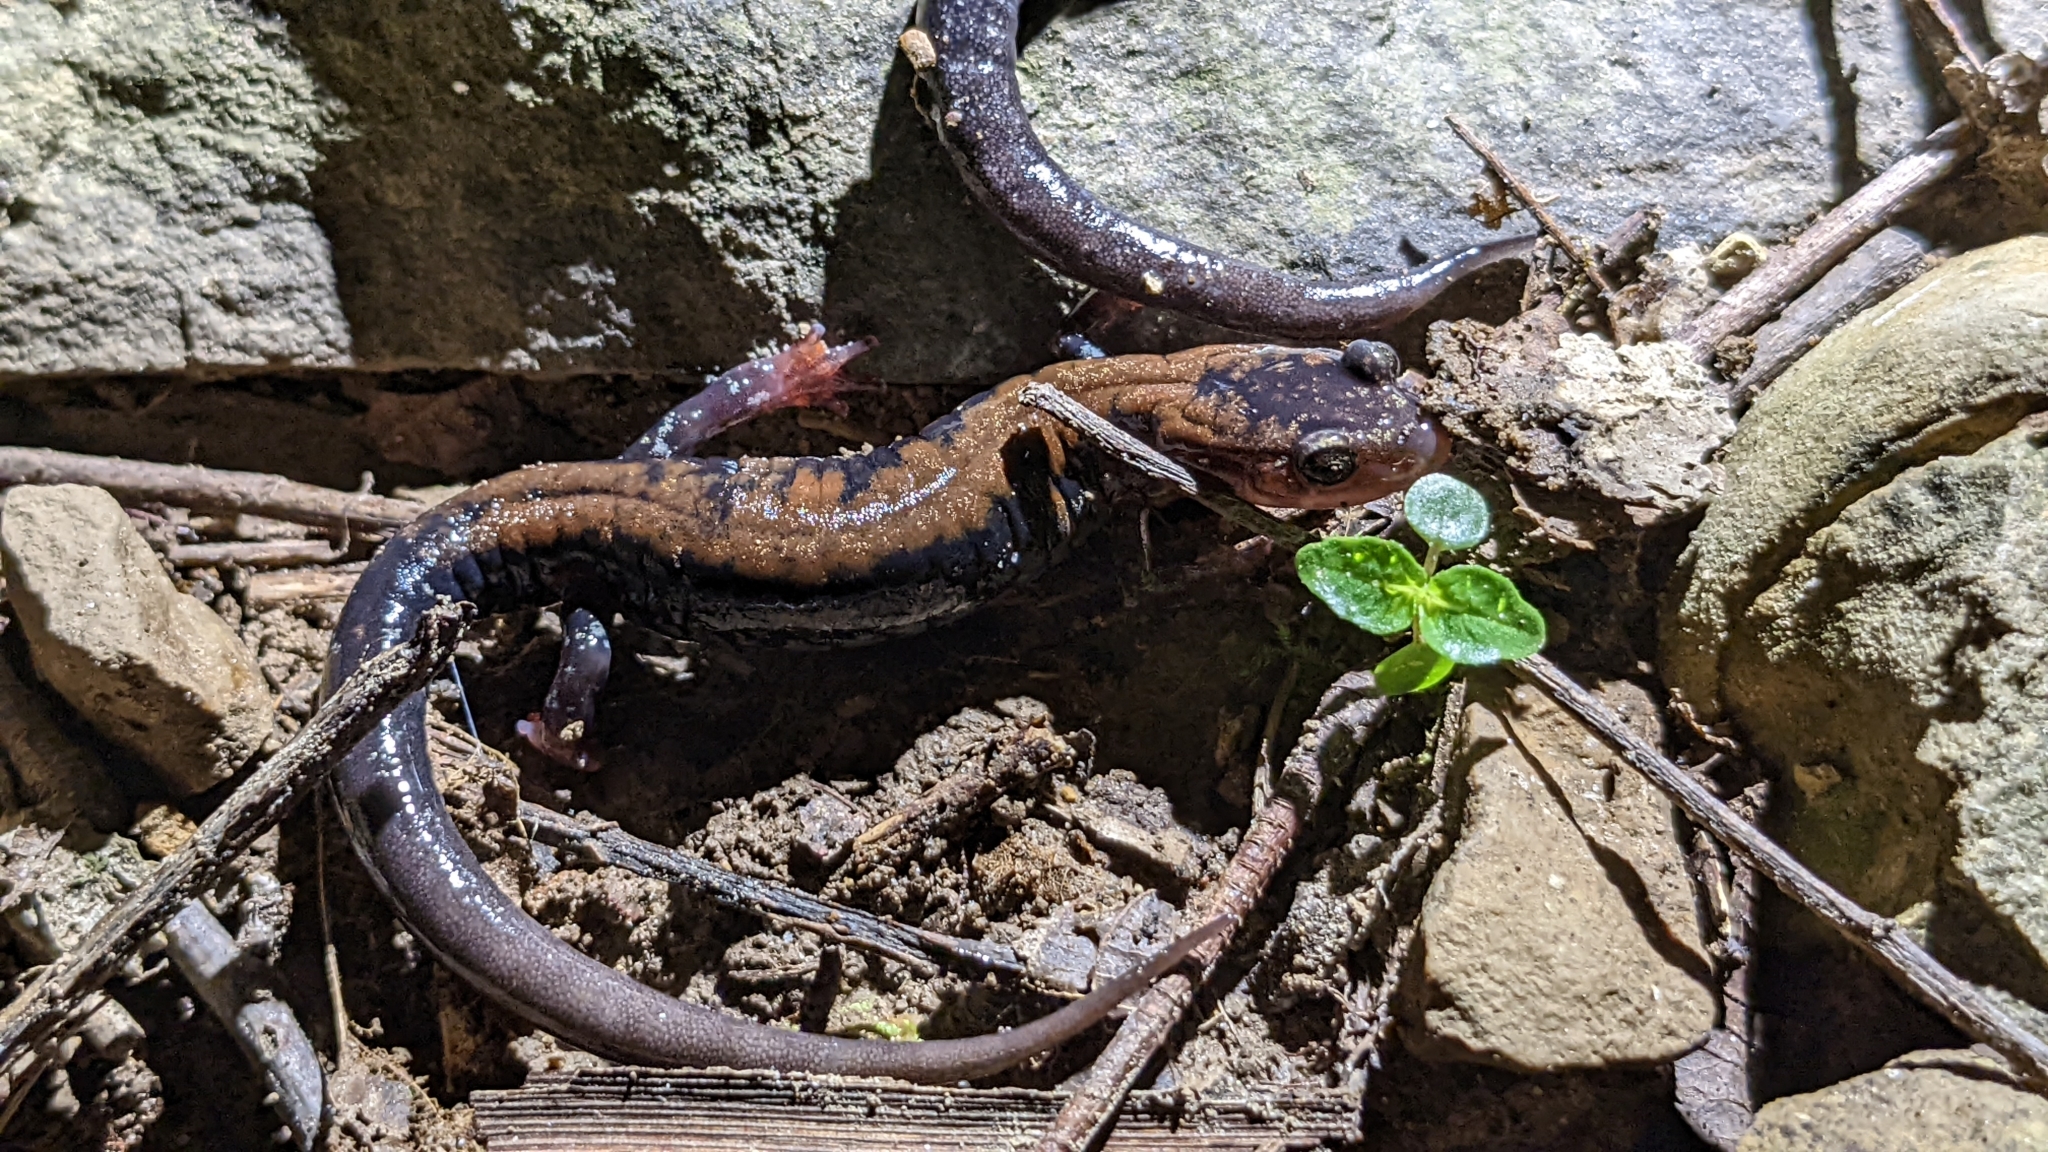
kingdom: Animalia
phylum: Chordata
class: Amphibia
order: Caudata
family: Plethodontidae
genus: Plethodon
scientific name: Plethodon ouachitae
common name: Rich mountain salamander
